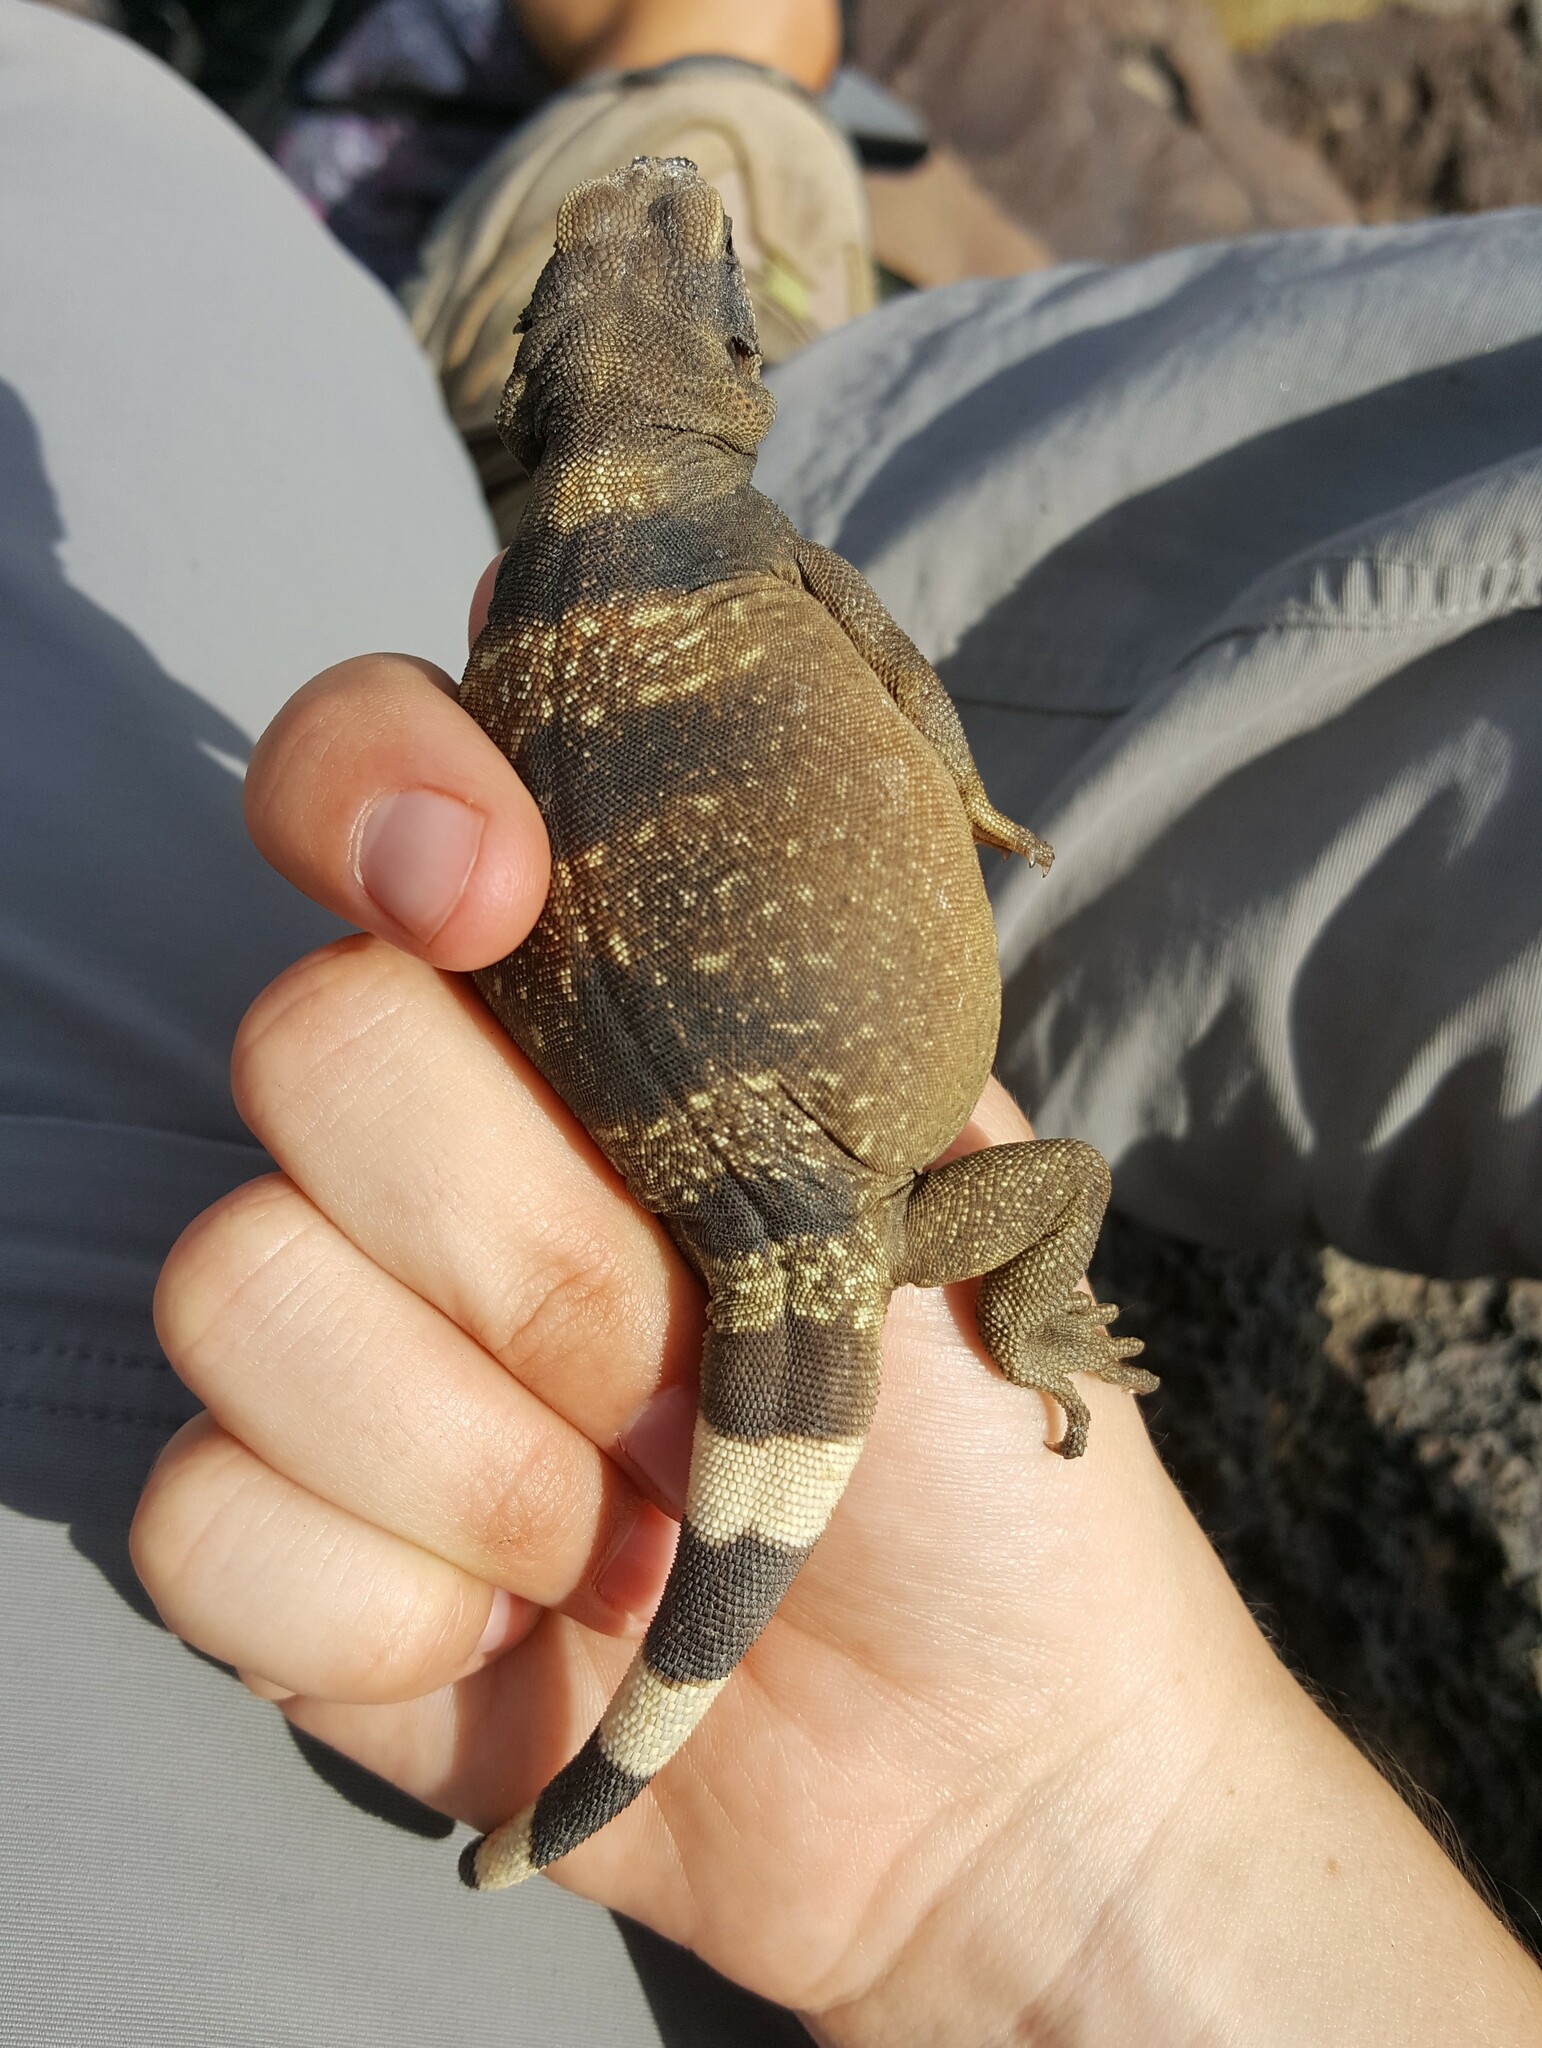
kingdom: Animalia
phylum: Chordata
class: Squamata
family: Iguanidae
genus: Sauromalus
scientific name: Sauromalus ater
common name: Northern chuckwalla
